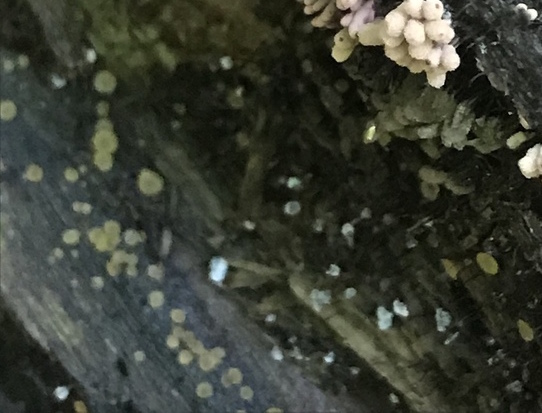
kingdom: Fungi
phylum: Ascomycota
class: Orbiliomycetes
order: Orbiliales
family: Orbiliaceae
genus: Orbilia
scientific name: Orbilia
